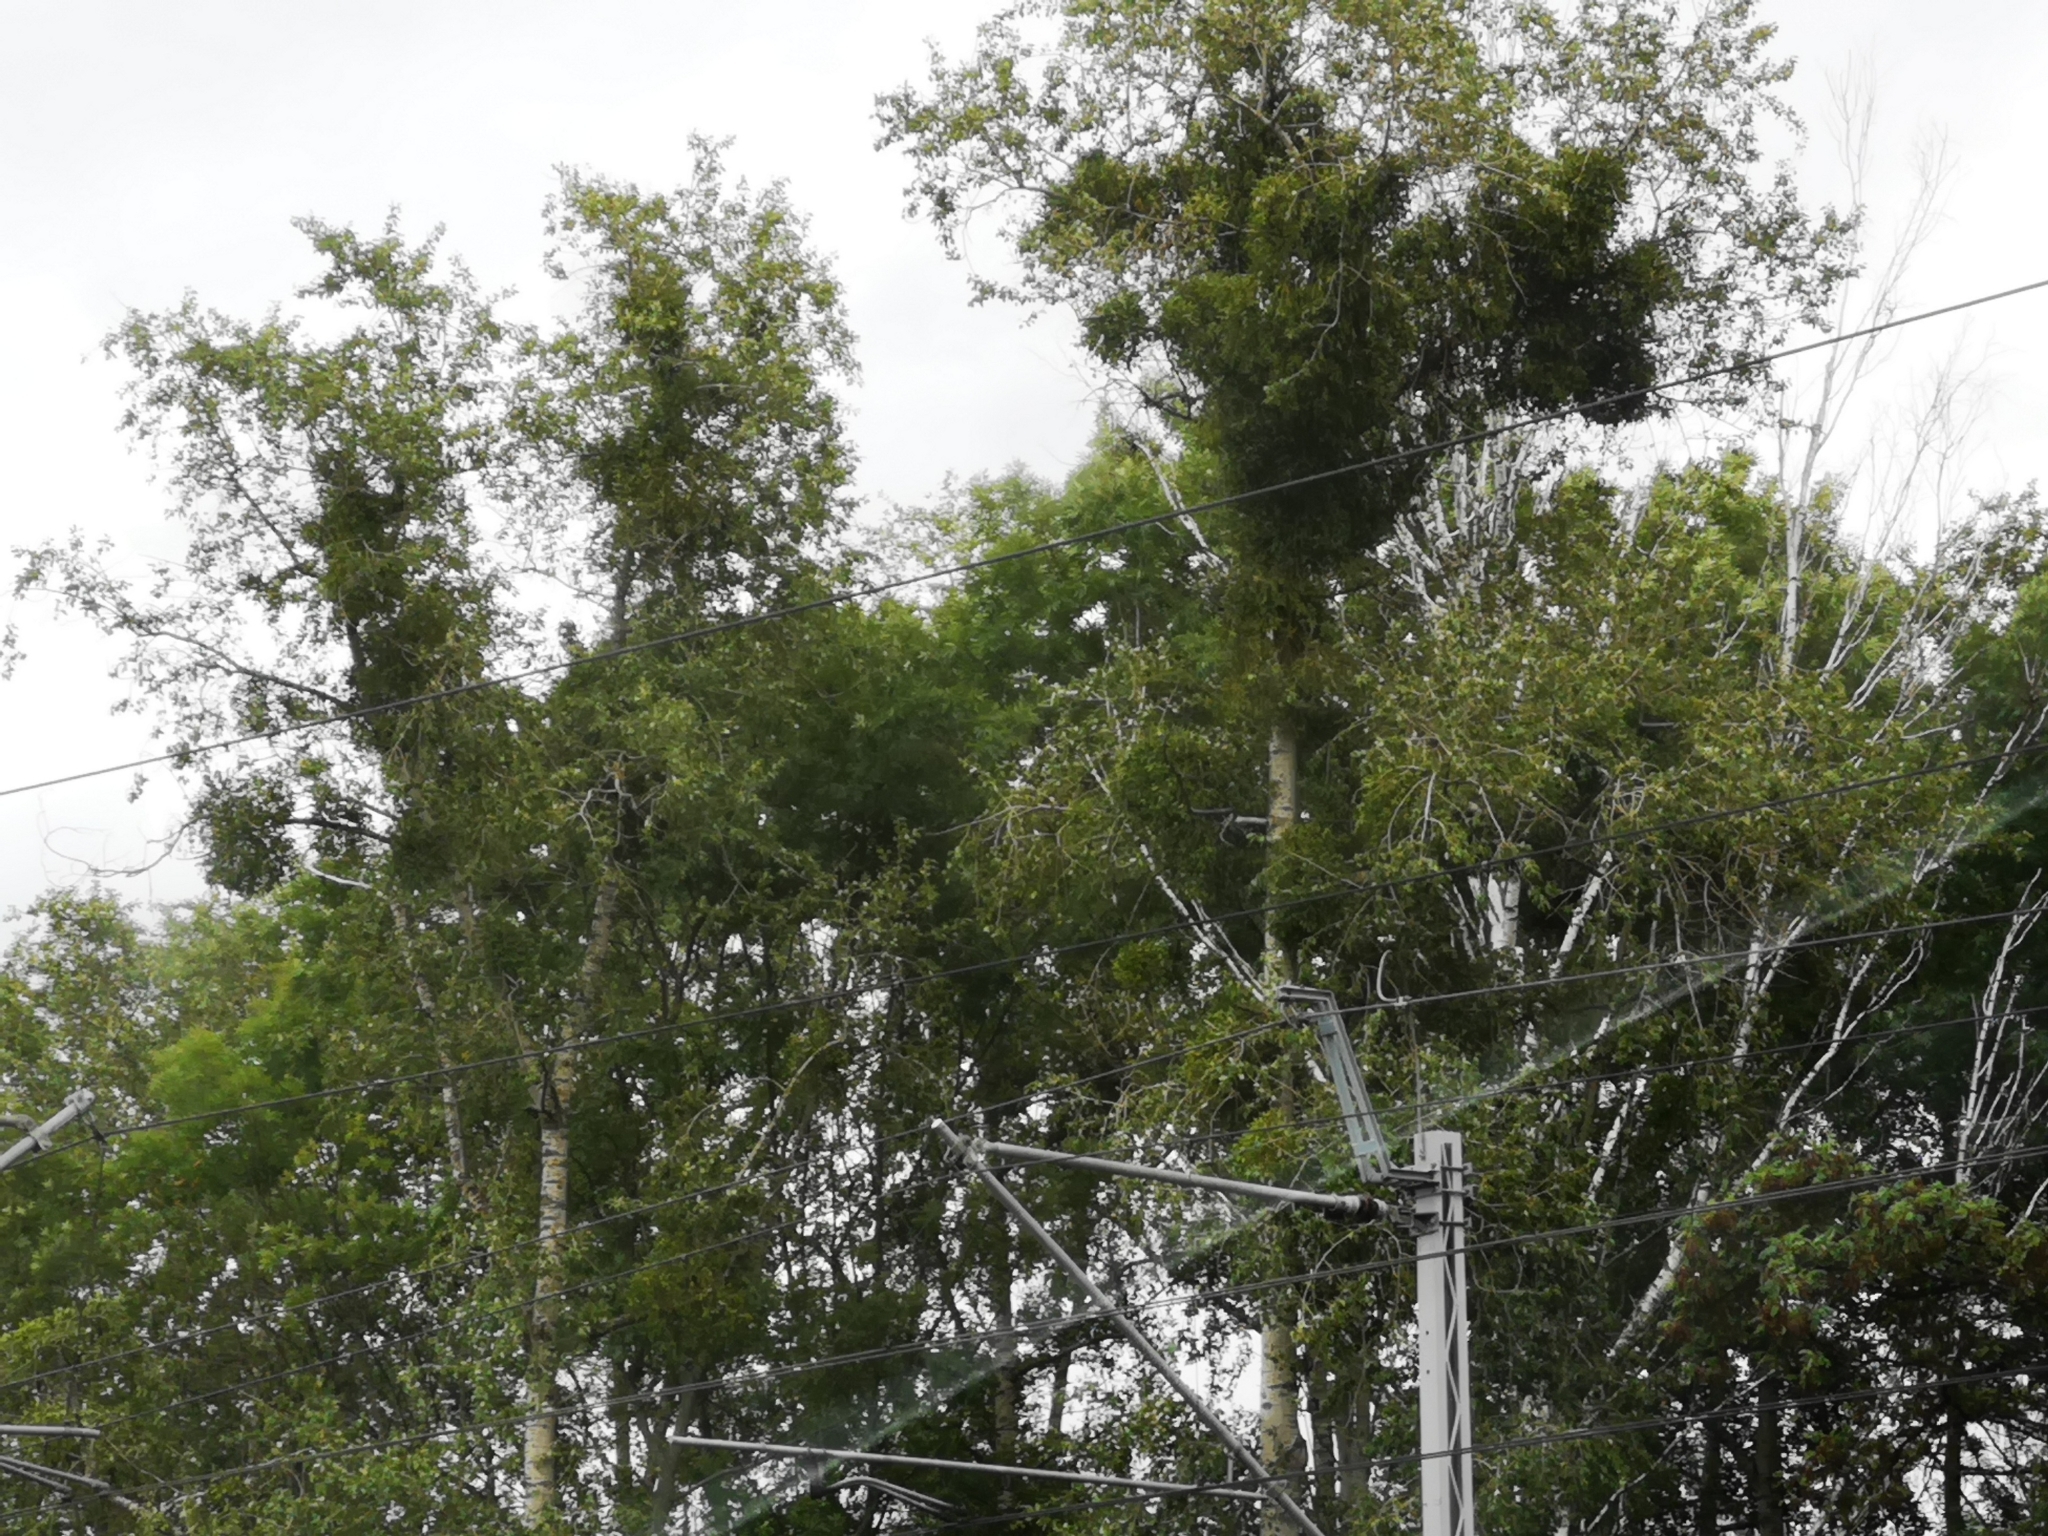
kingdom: Plantae
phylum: Tracheophyta
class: Magnoliopsida
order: Santalales
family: Viscaceae
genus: Viscum
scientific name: Viscum album
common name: Mistletoe
